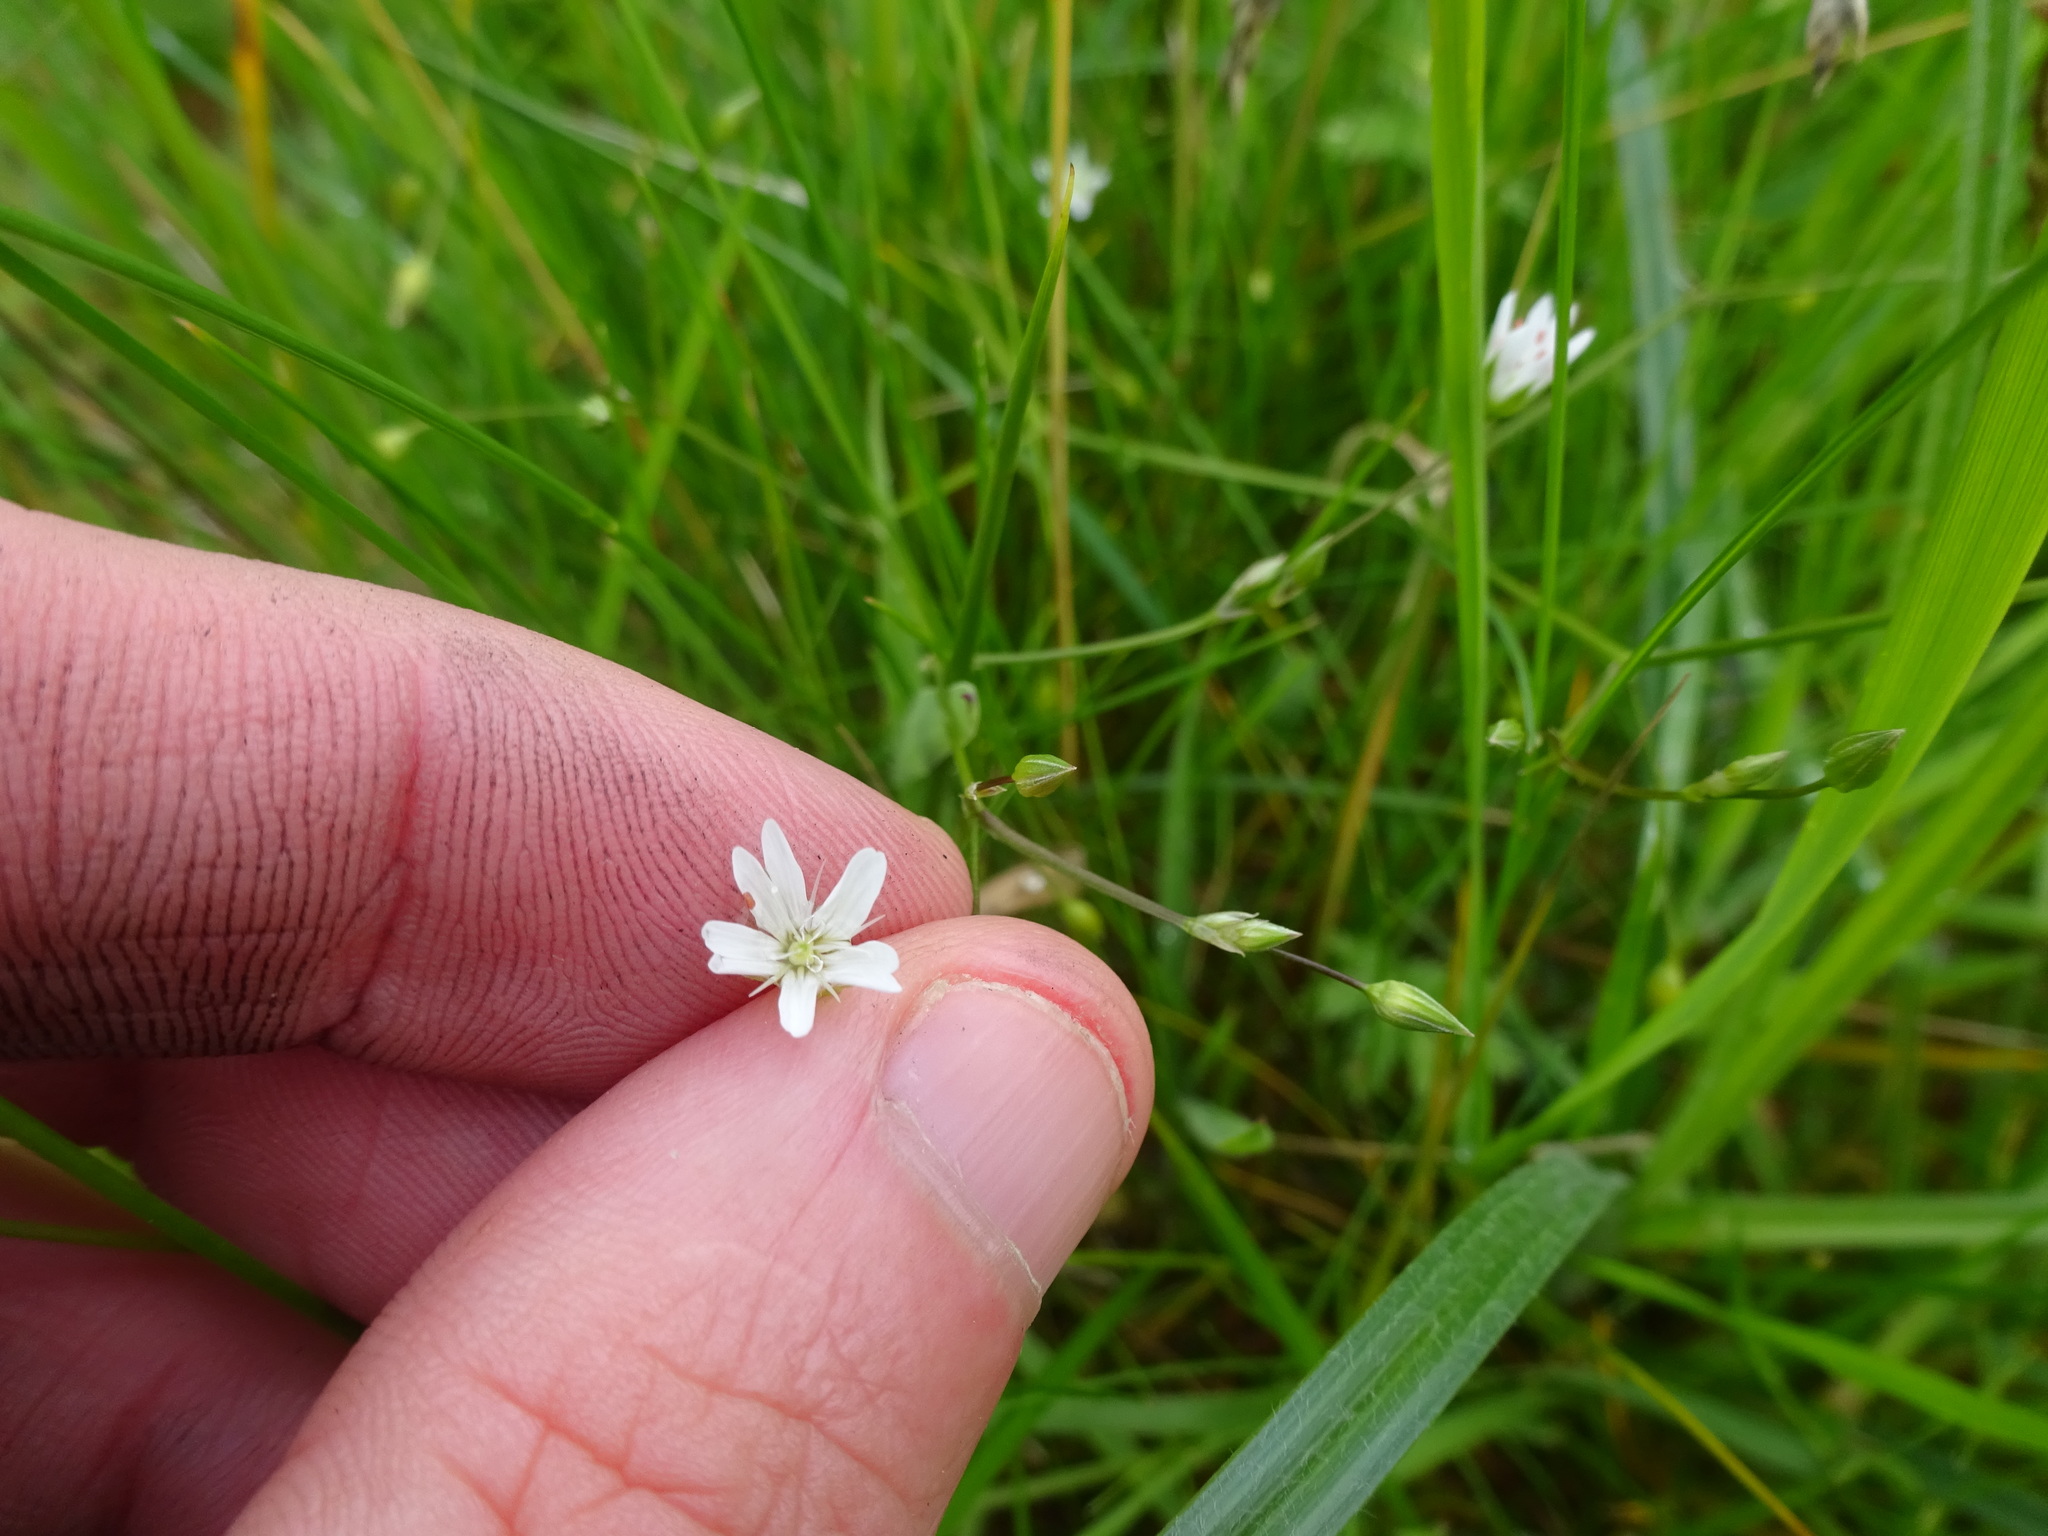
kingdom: Plantae
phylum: Tracheophyta
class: Magnoliopsida
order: Caryophyllales
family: Caryophyllaceae
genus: Stellaria
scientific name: Stellaria graminea
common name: Grass-like starwort
